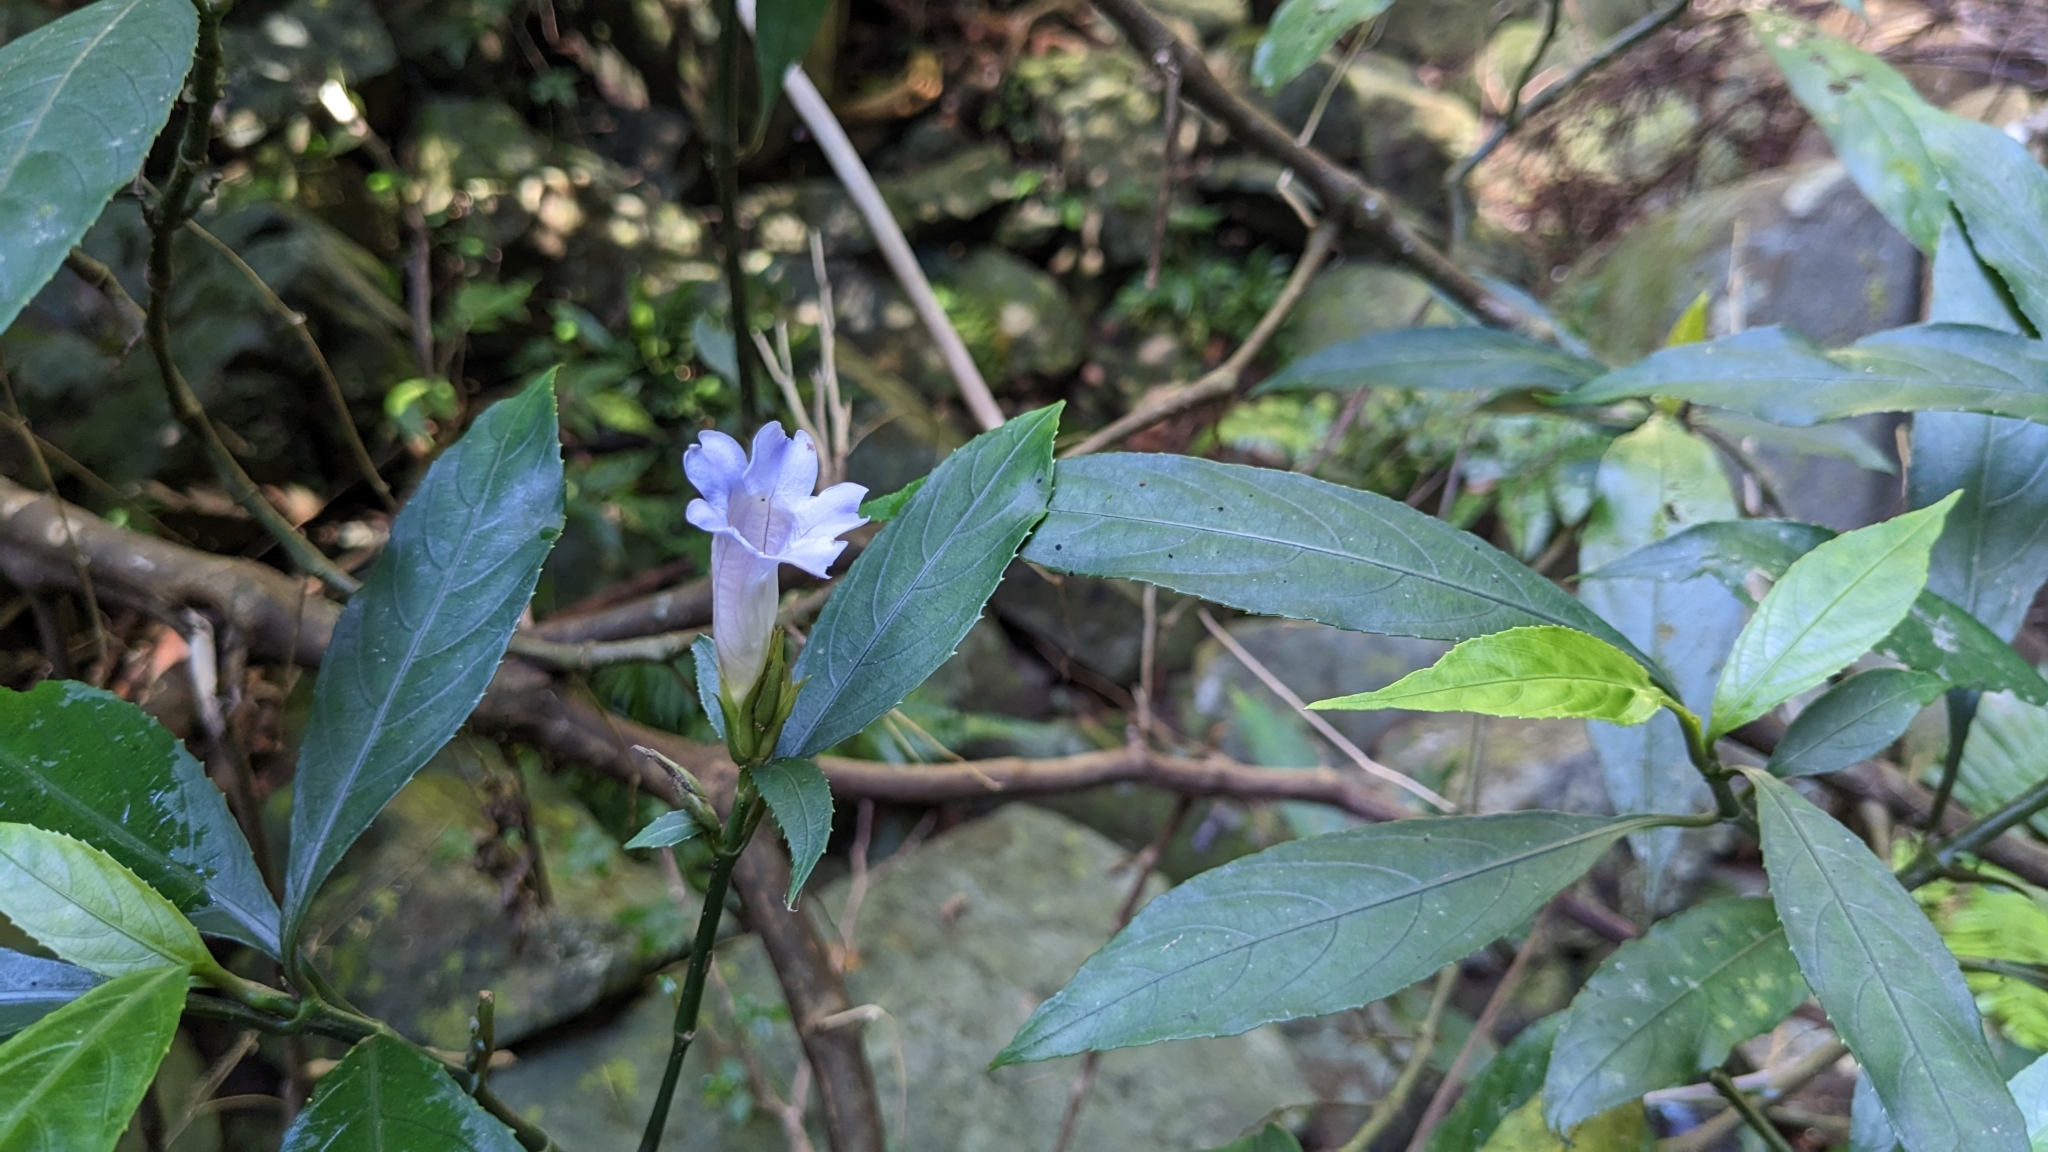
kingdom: Plantae
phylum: Tracheophyta
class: Magnoliopsida
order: Lamiales
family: Acanthaceae
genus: Strobilanthes
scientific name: Strobilanthes longespicata
